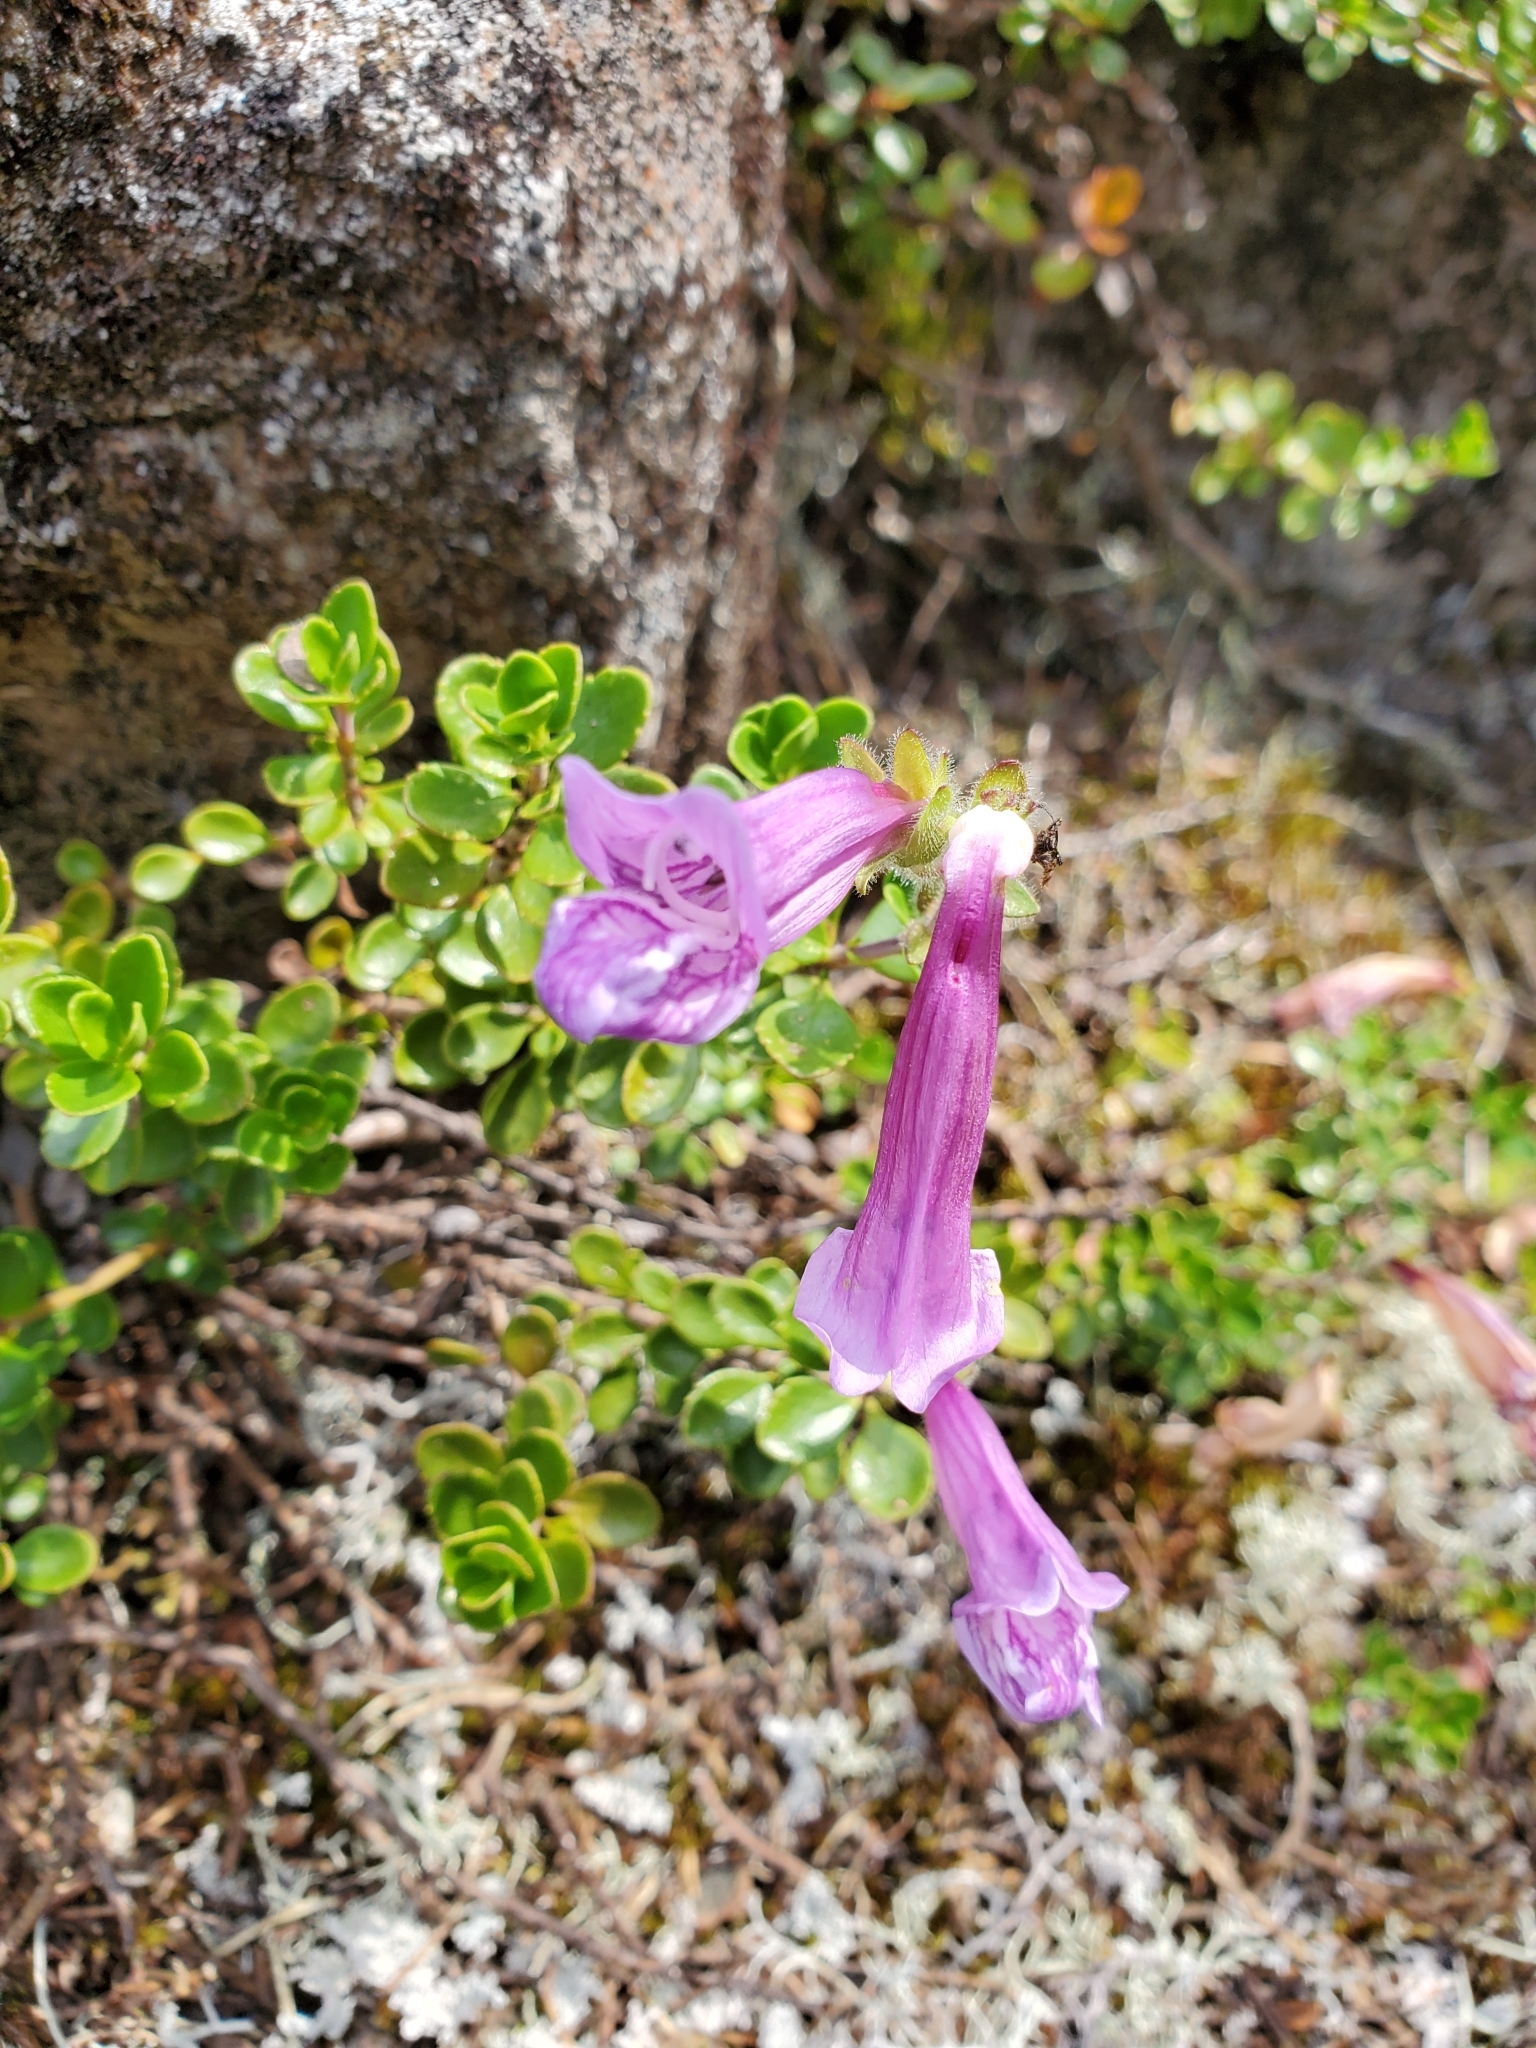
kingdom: Plantae
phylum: Tracheophyta
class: Magnoliopsida
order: Lamiales
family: Plantaginaceae
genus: Penstemon
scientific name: Penstemon davidsonii
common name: Davidson's penstemon
